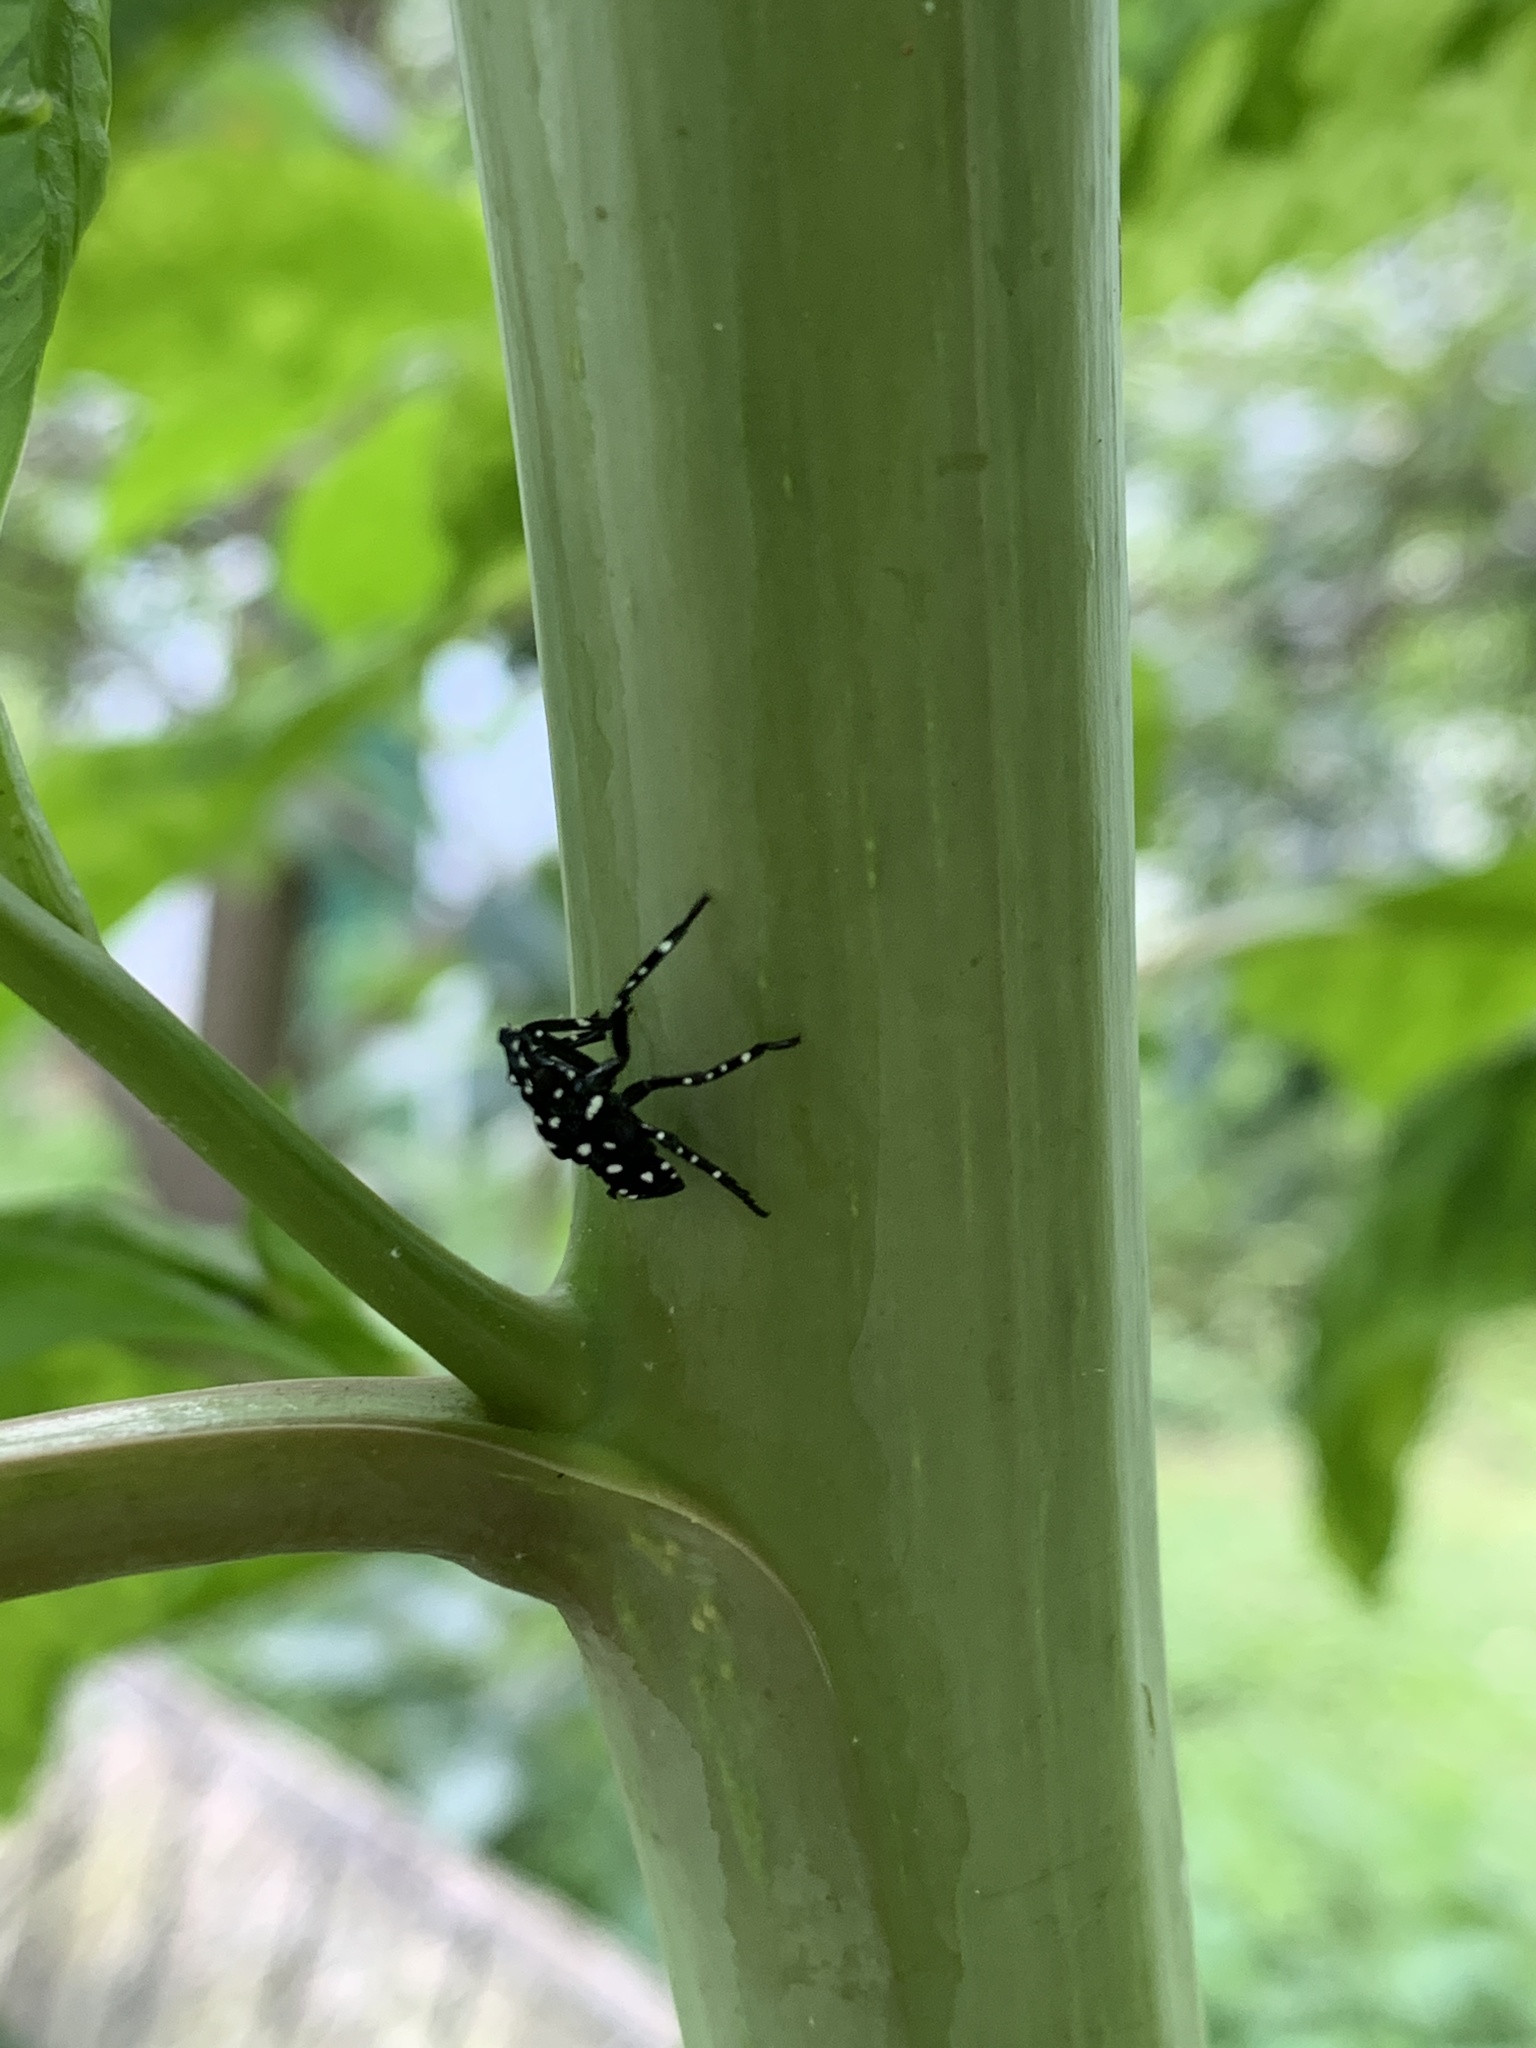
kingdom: Animalia
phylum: Arthropoda
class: Insecta
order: Hemiptera
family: Fulgoridae
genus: Lycorma
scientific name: Lycorma delicatula
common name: Spotted lanternfly
